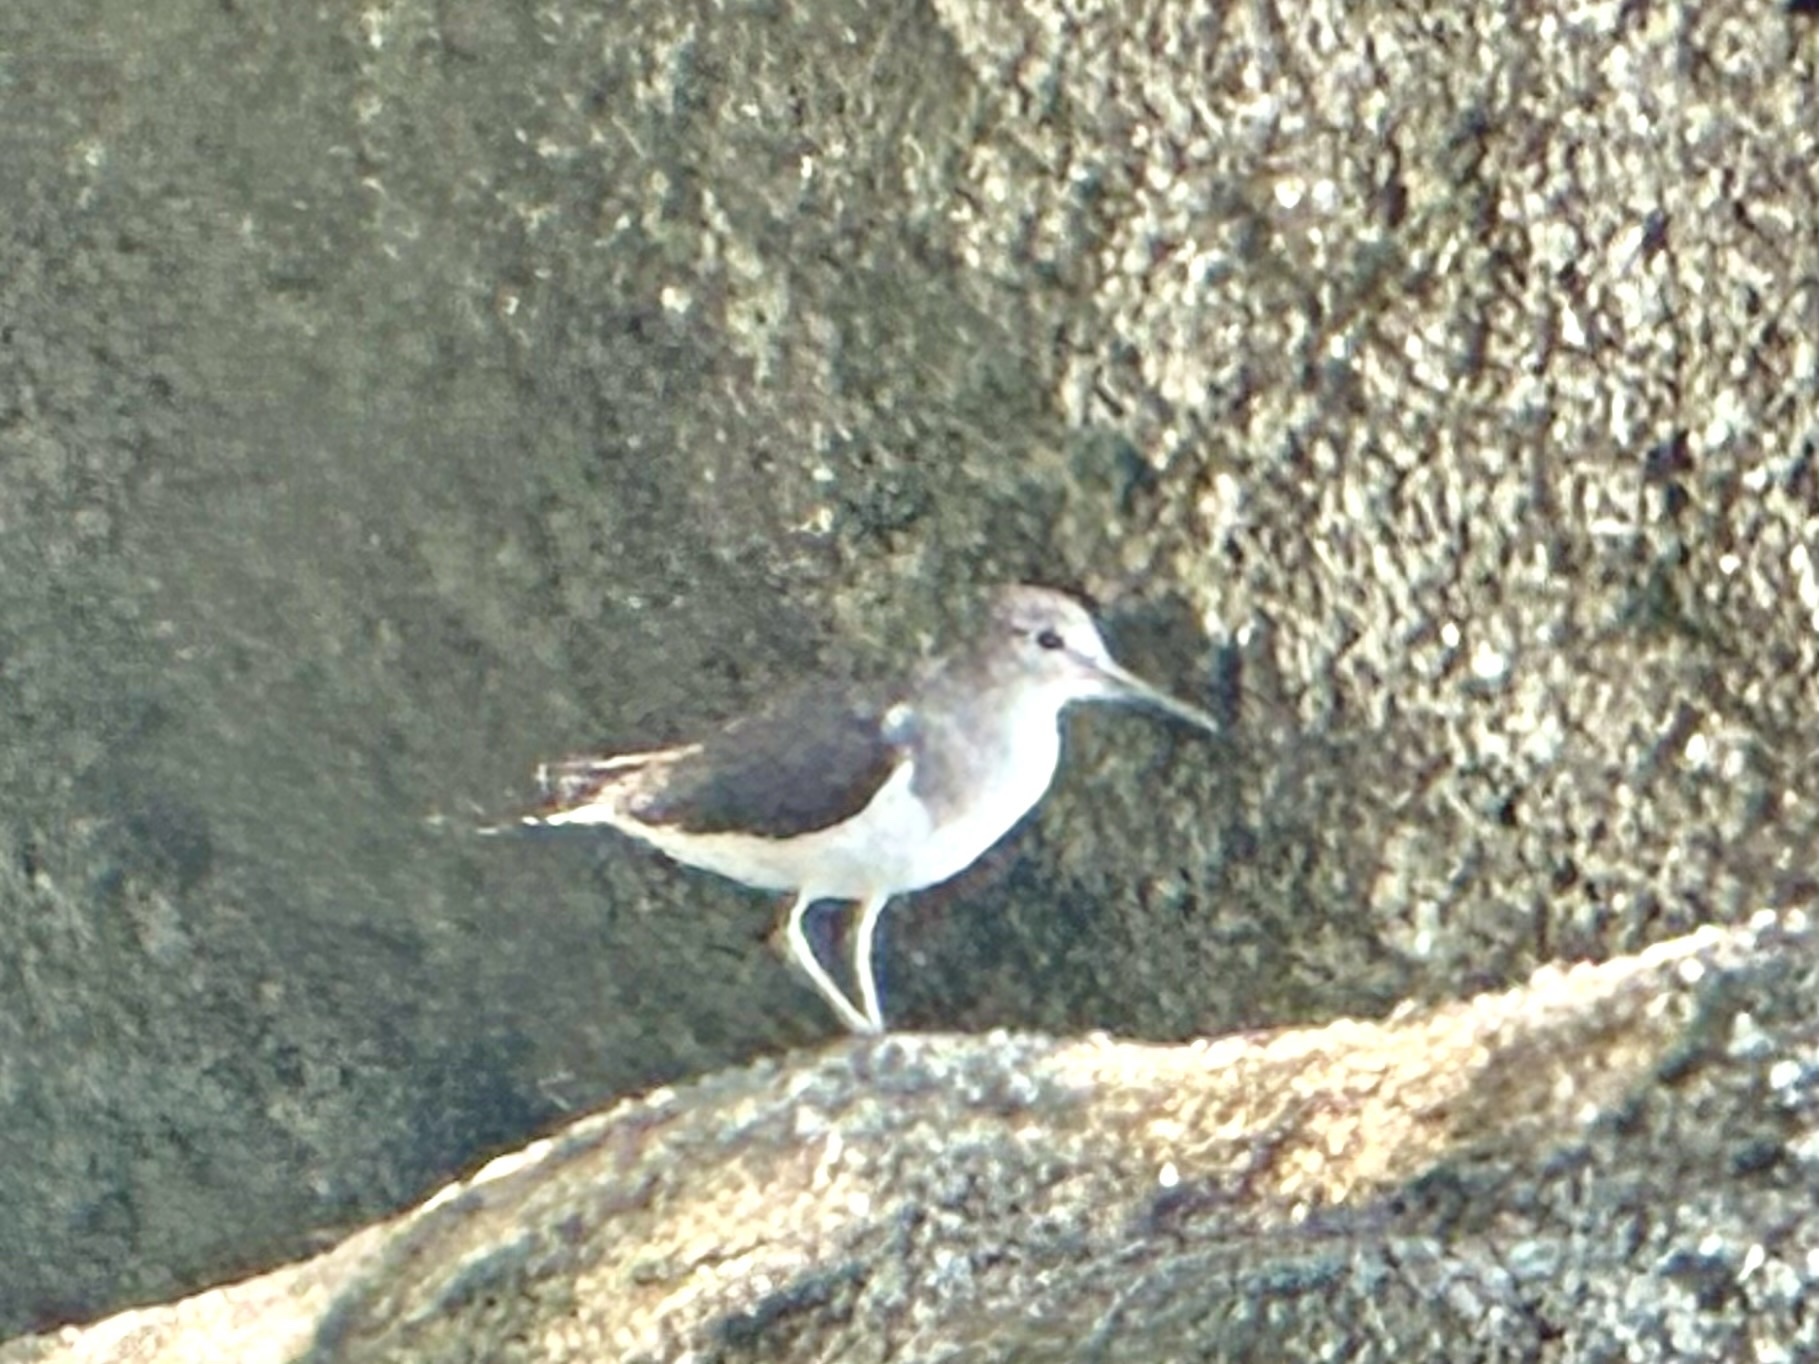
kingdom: Animalia
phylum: Chordata
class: Aves
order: Charadriiformes
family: Scolopacidae
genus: Actitis
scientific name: Actitis hypoleucos
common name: Common sandpiper
